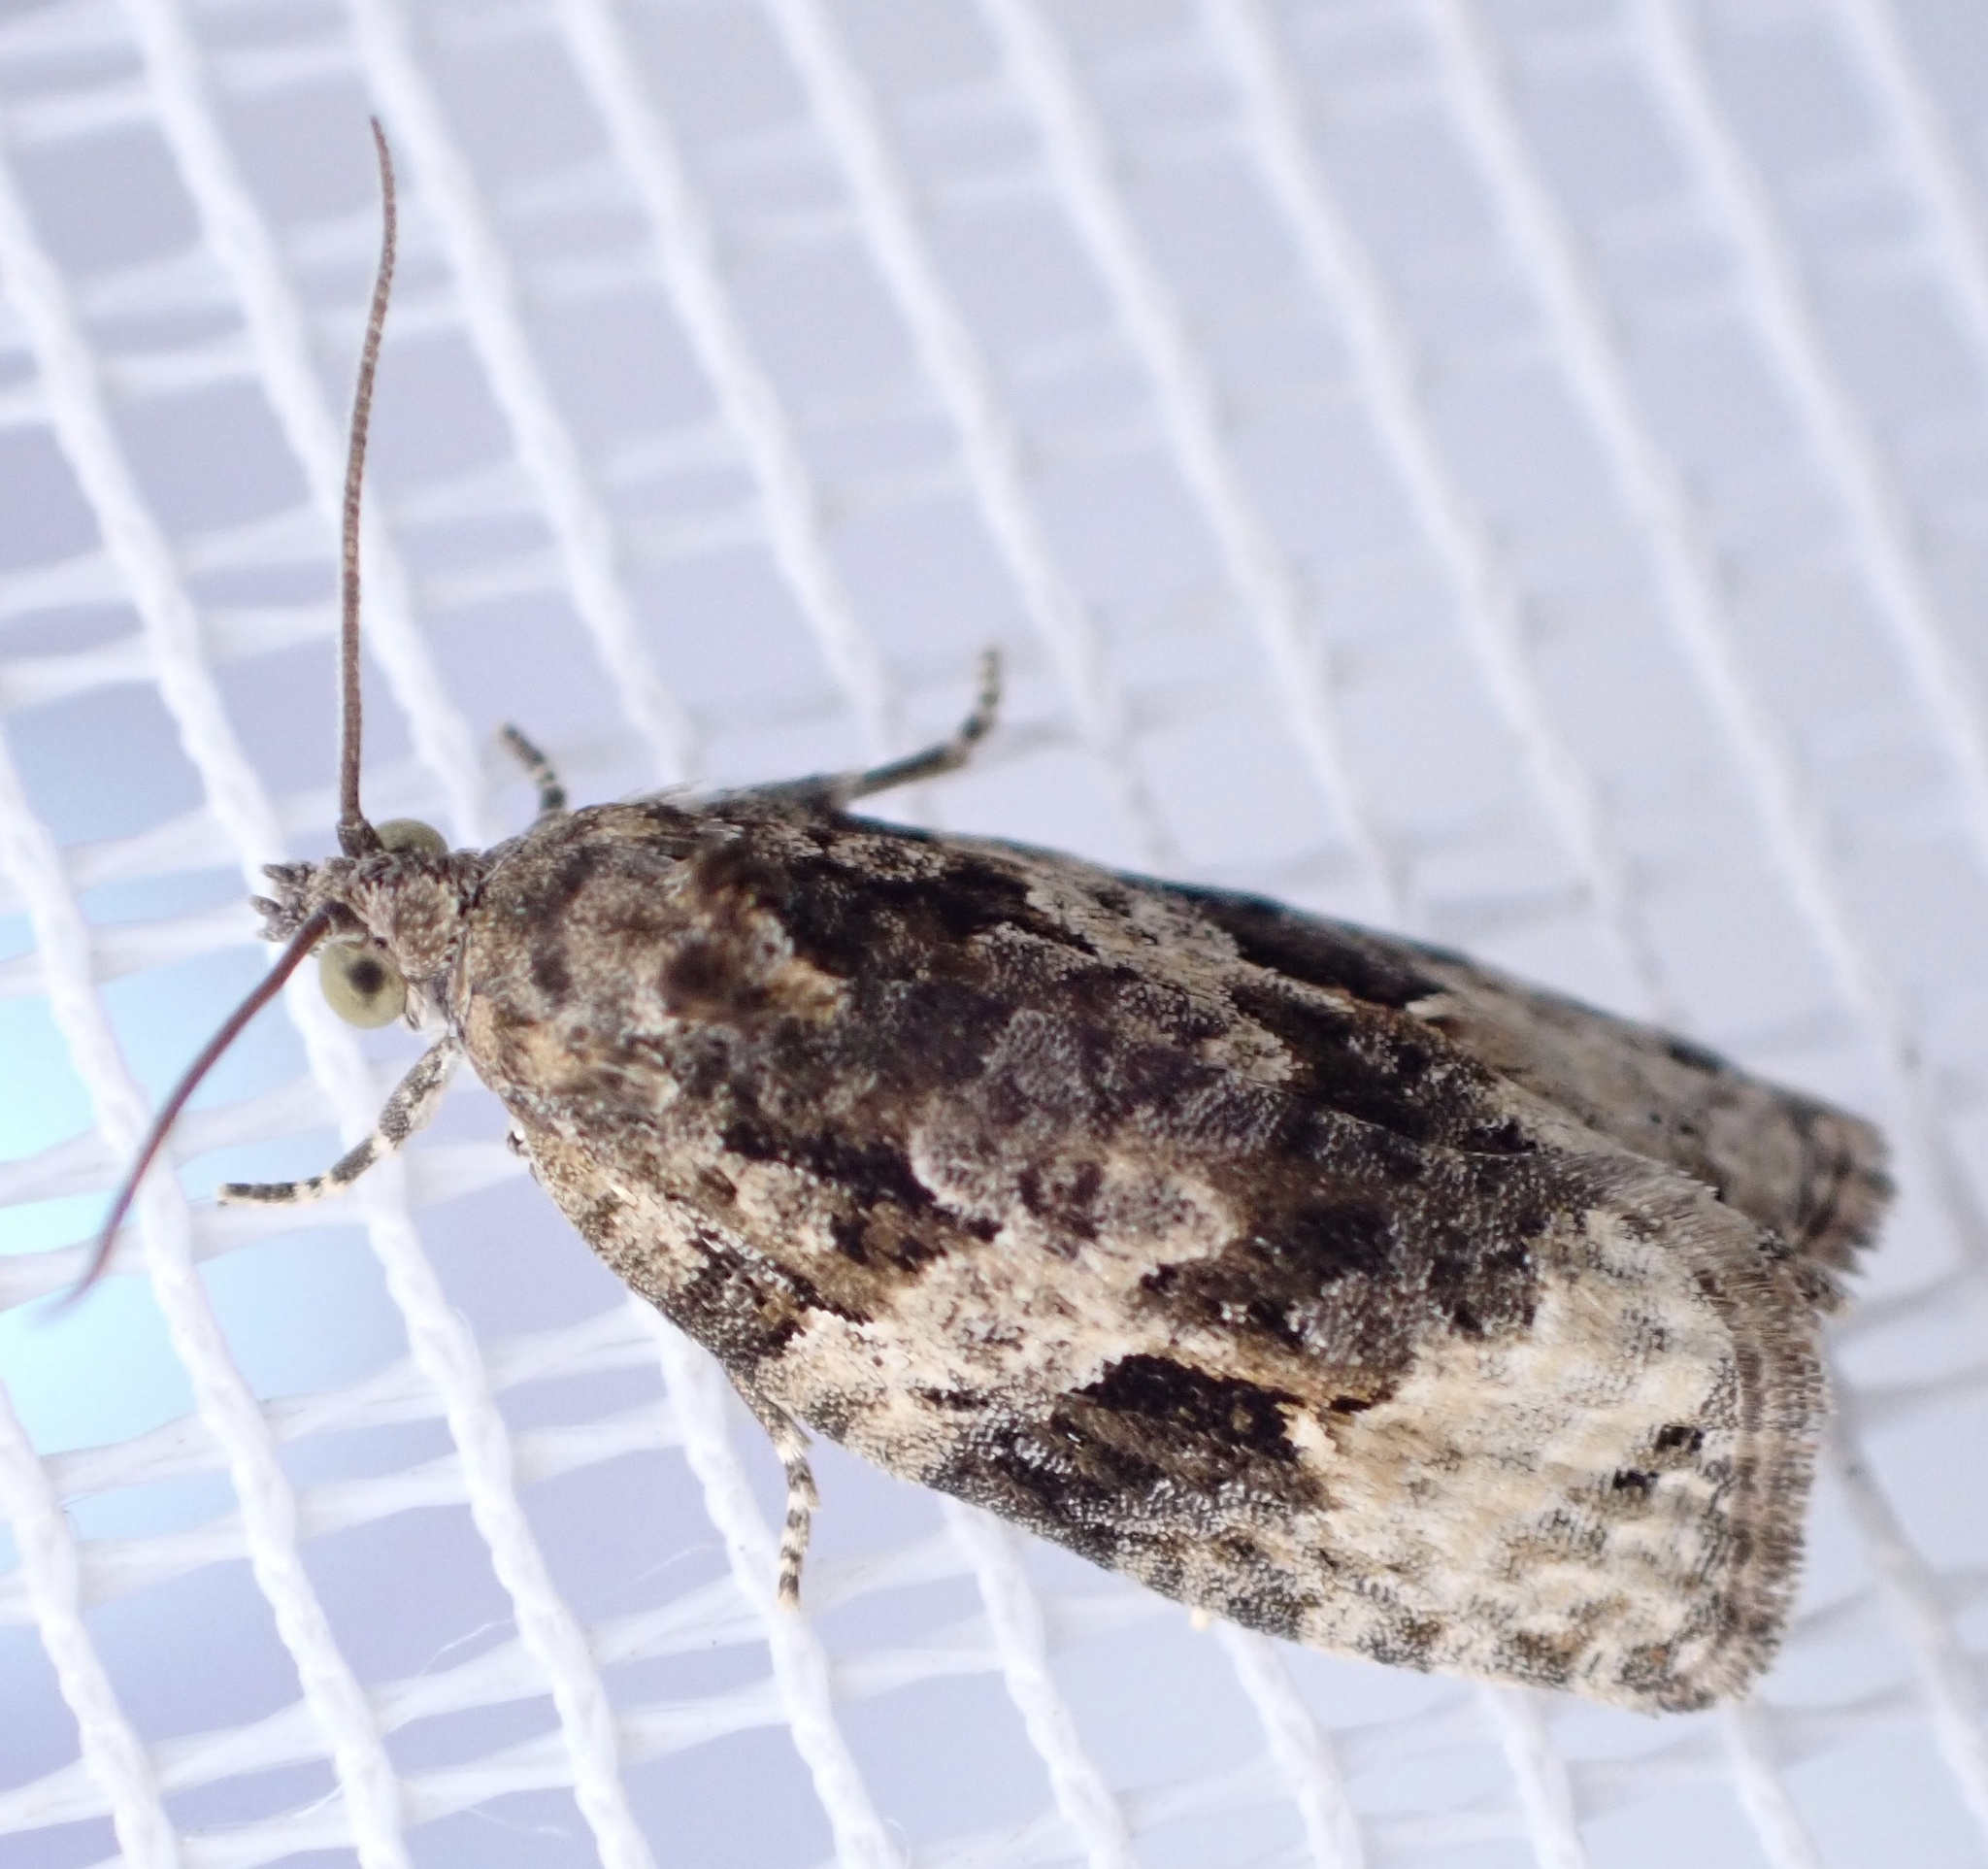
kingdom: Animalia
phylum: Arthropoda
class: Insecta
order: Lepidoptera
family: Tortricidae
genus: Apotomis
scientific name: Apotomis lineana
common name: Willow marble
